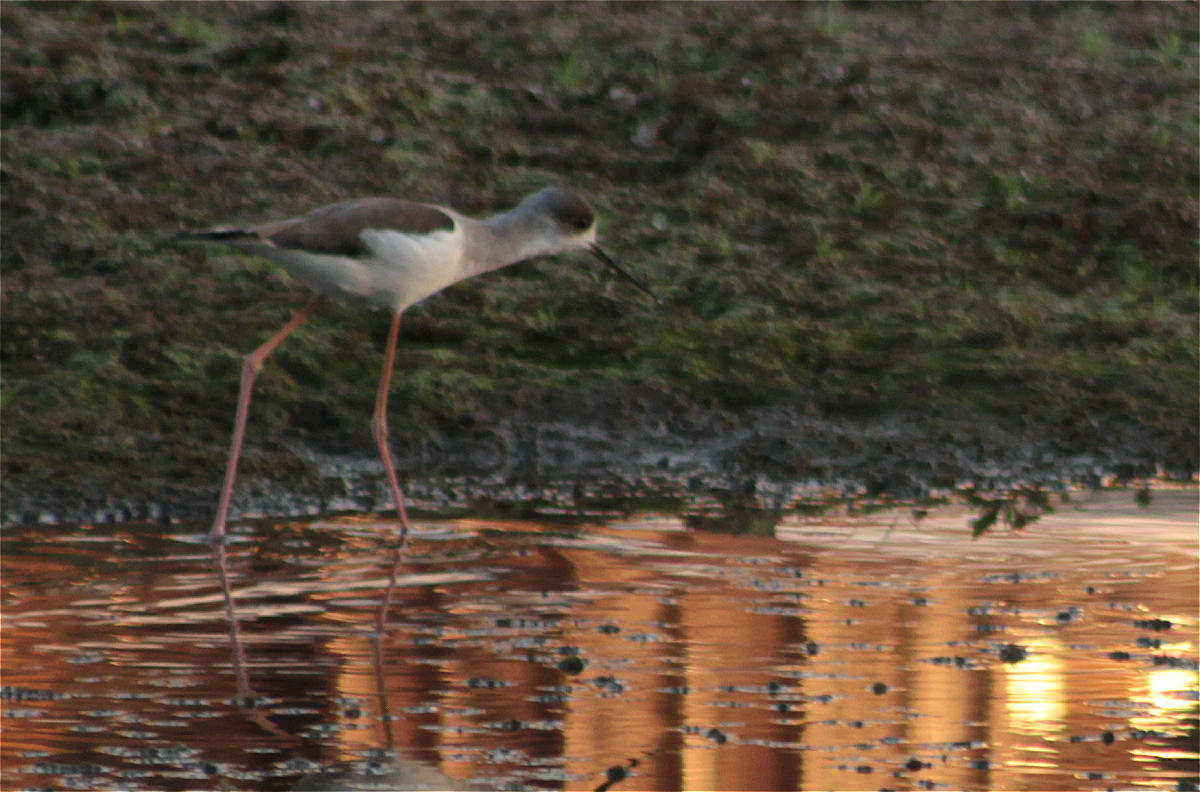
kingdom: Animalia
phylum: Chordata
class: Aves
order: Charadriiformes
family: Recurvirostridae
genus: Himantopus
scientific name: Himantopus himantopus
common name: Black-winged stilt
